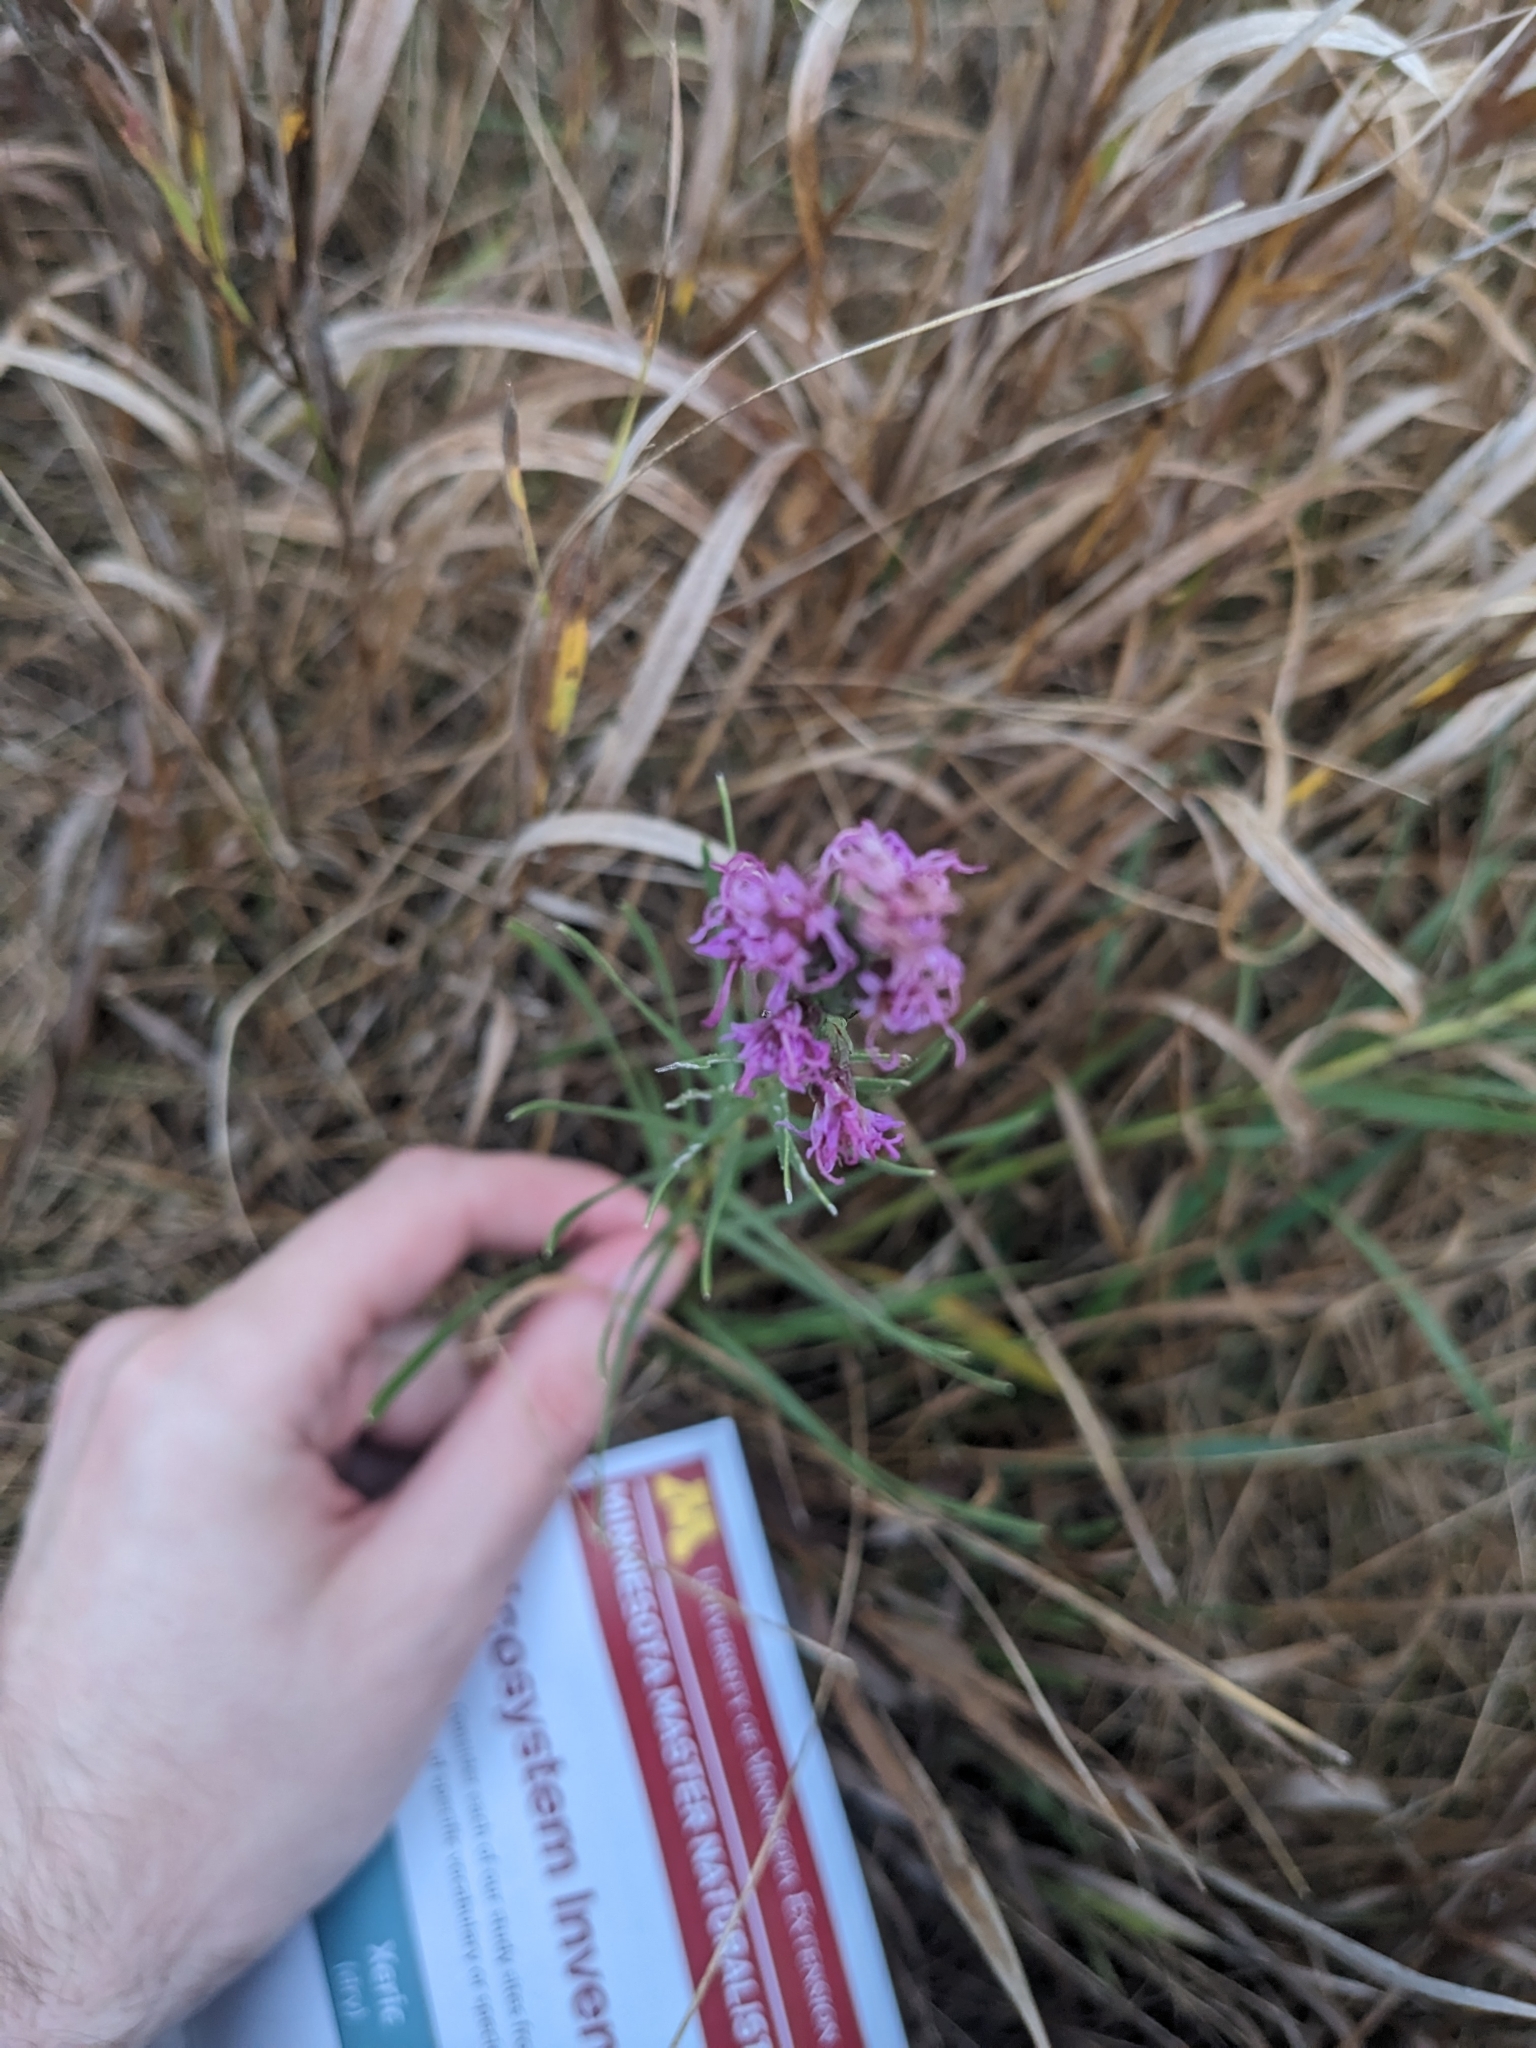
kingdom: Plantae
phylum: Tracheophyta
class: Magnoliopsida
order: Asterales
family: Asteraceae
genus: Liatris
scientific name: Liatris punctata
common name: Dotted gayfeather
